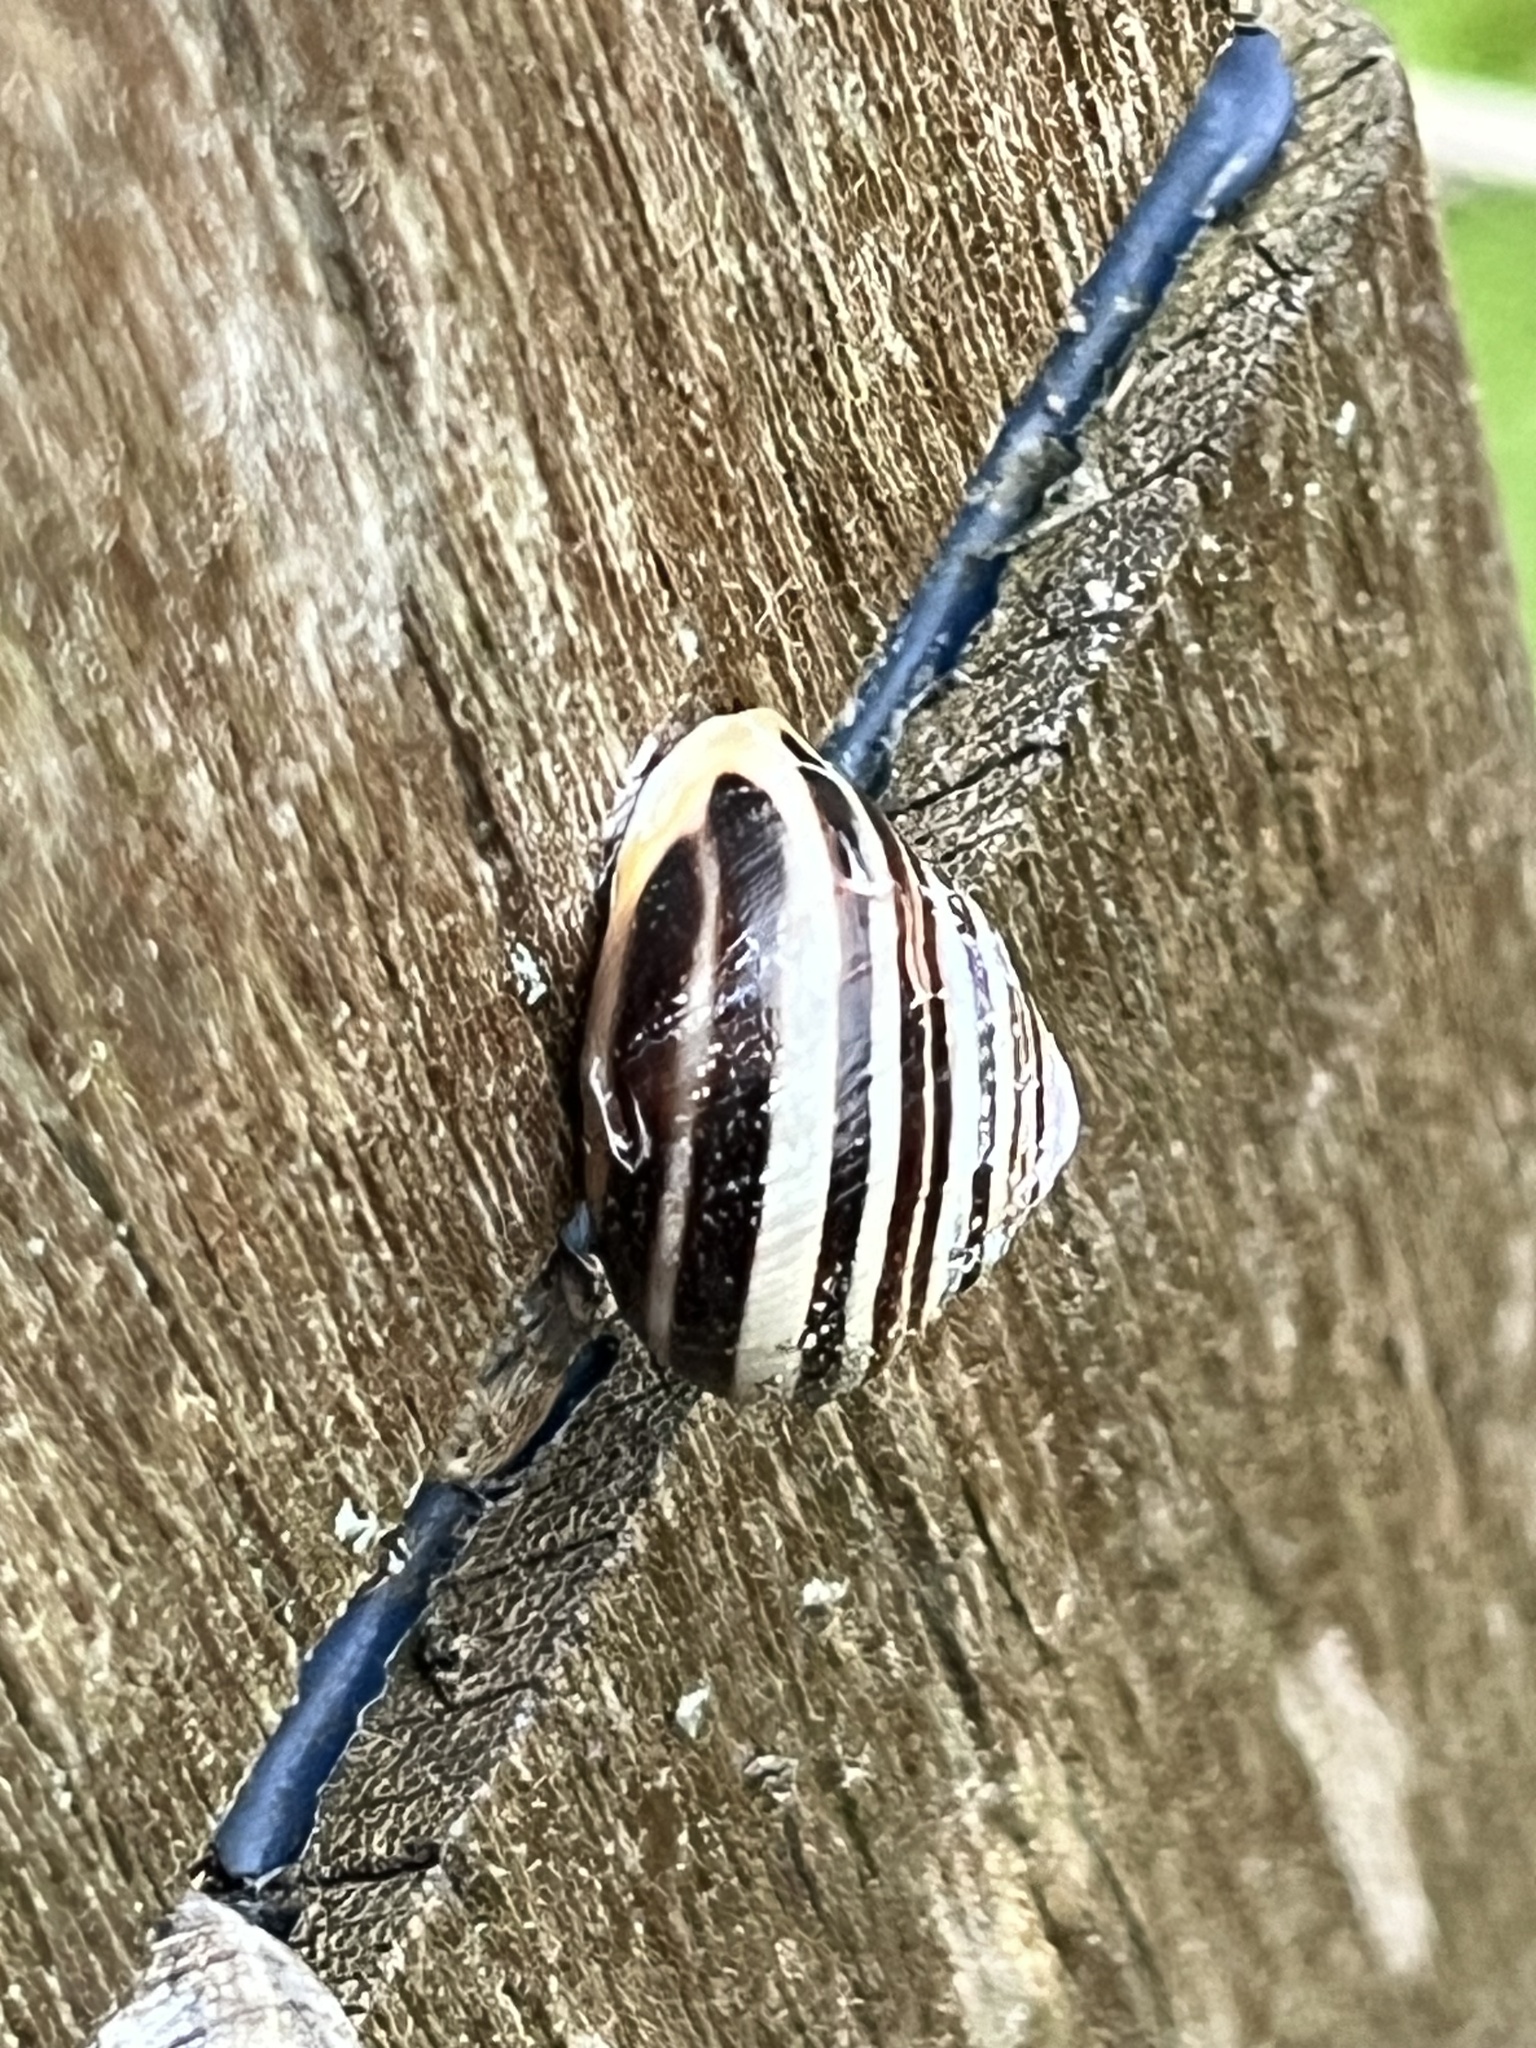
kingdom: Animalia
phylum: Mollusca
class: Gastropoda
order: Stylommatophora
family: Helicidae
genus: Cepaea
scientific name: Cepaea hortensis
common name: White-lip gardensnail
